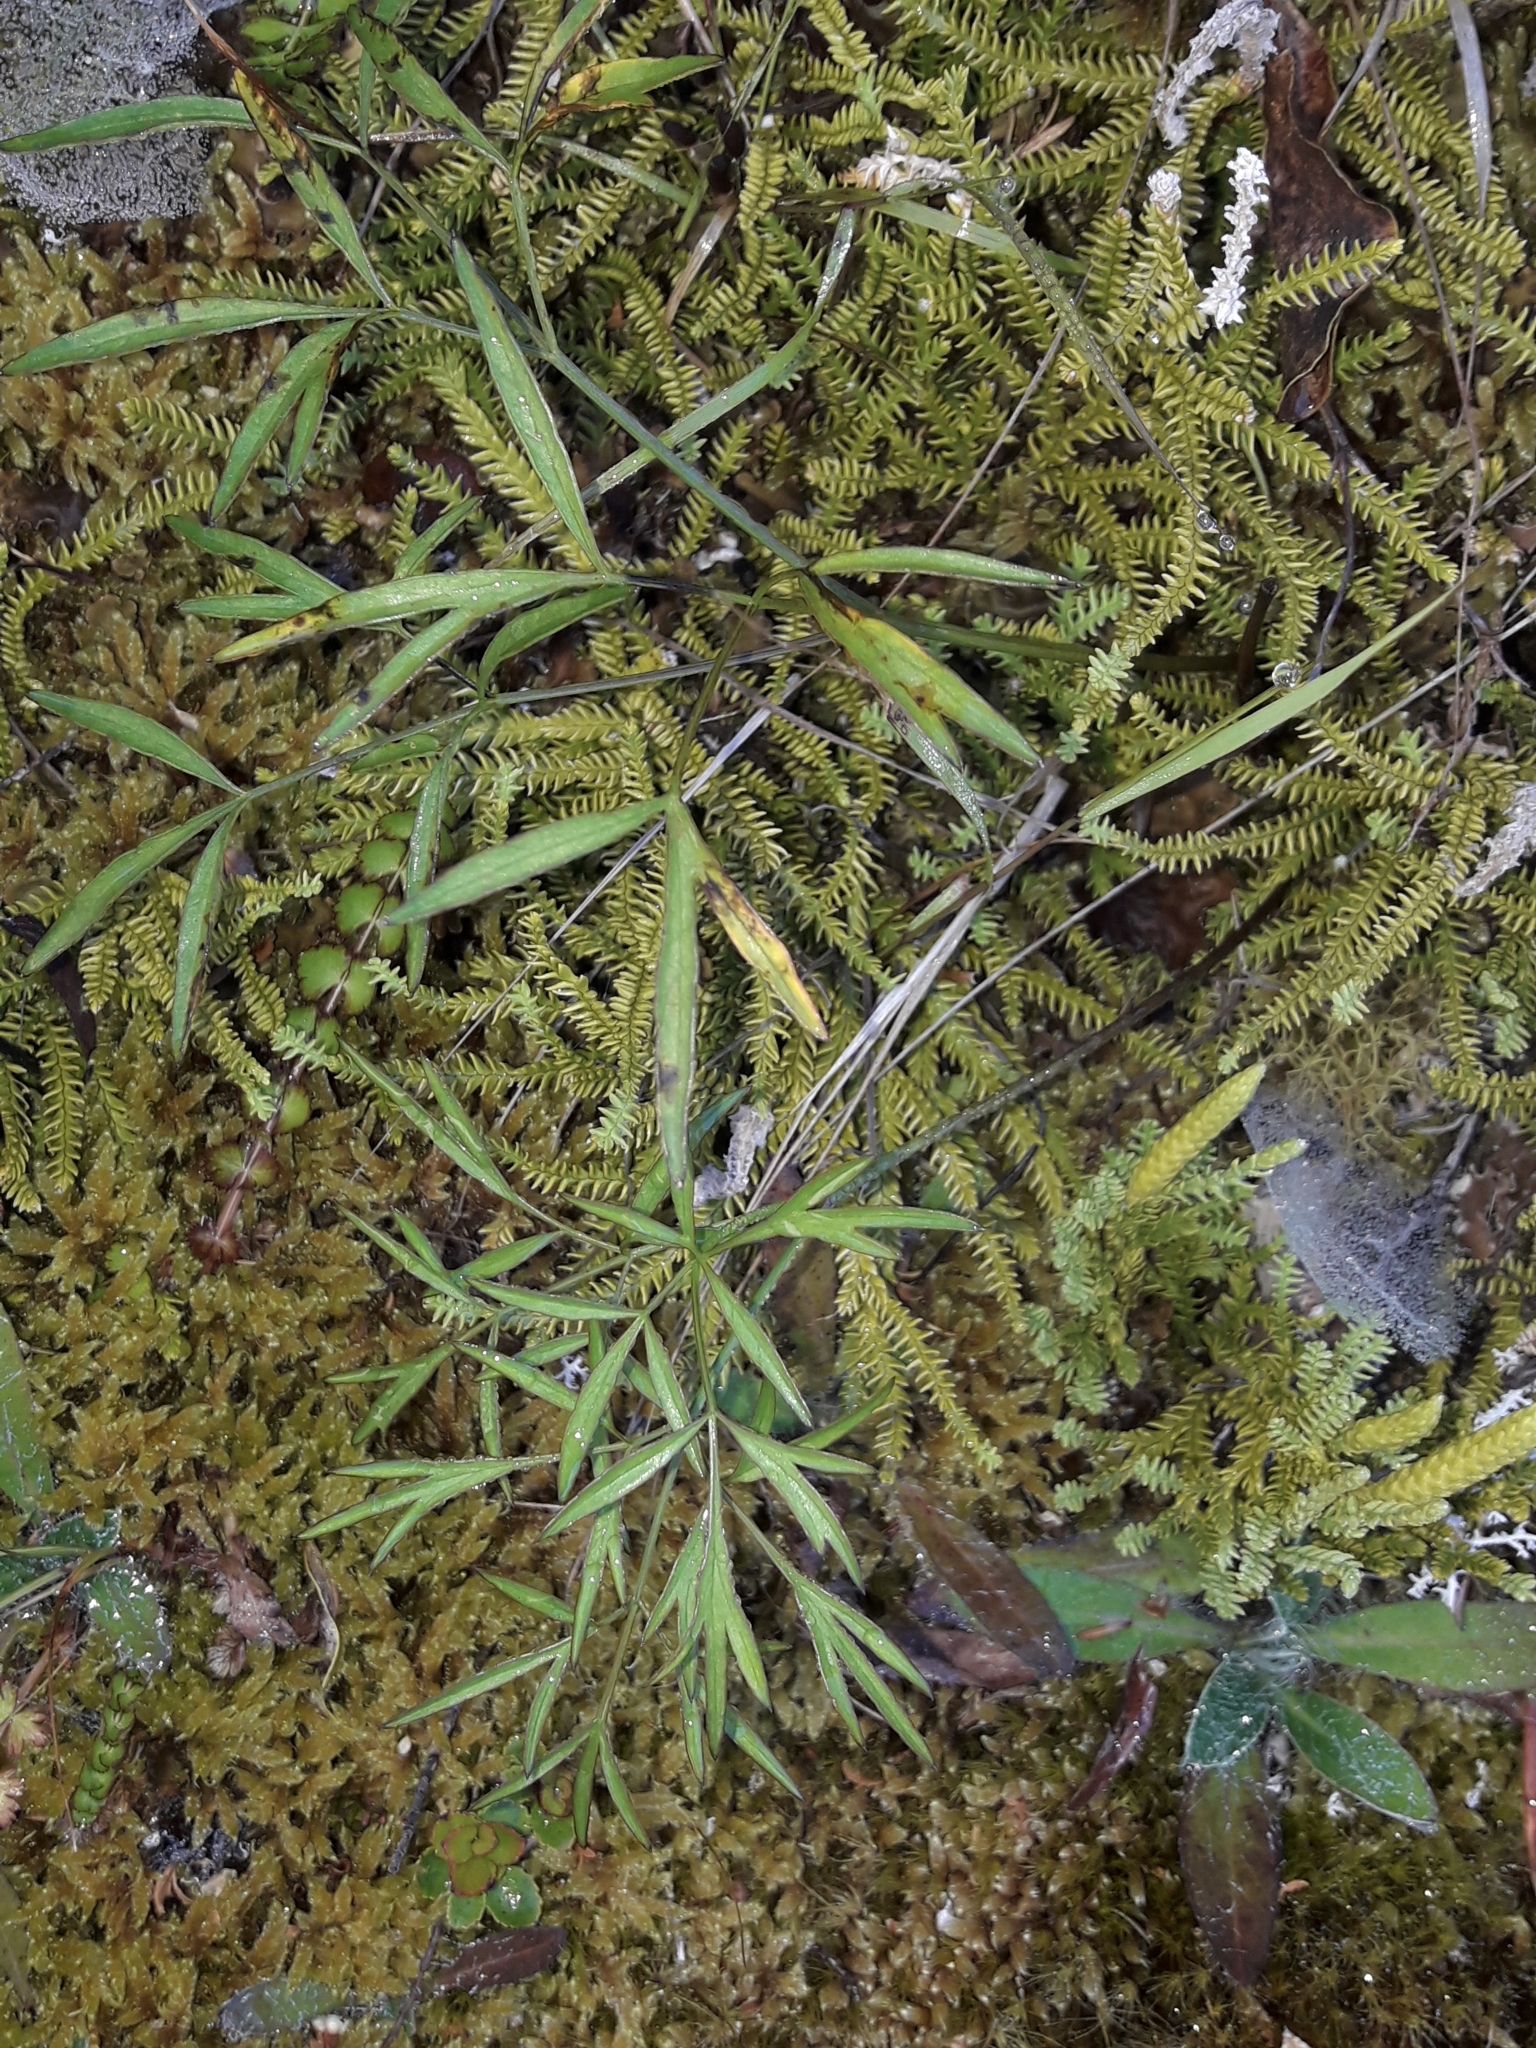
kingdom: Plantae
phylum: Tracheophyta
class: Magnoliopsida
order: Apiales
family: Apiaceae
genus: Anisotome
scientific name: Anisotome filifolia
